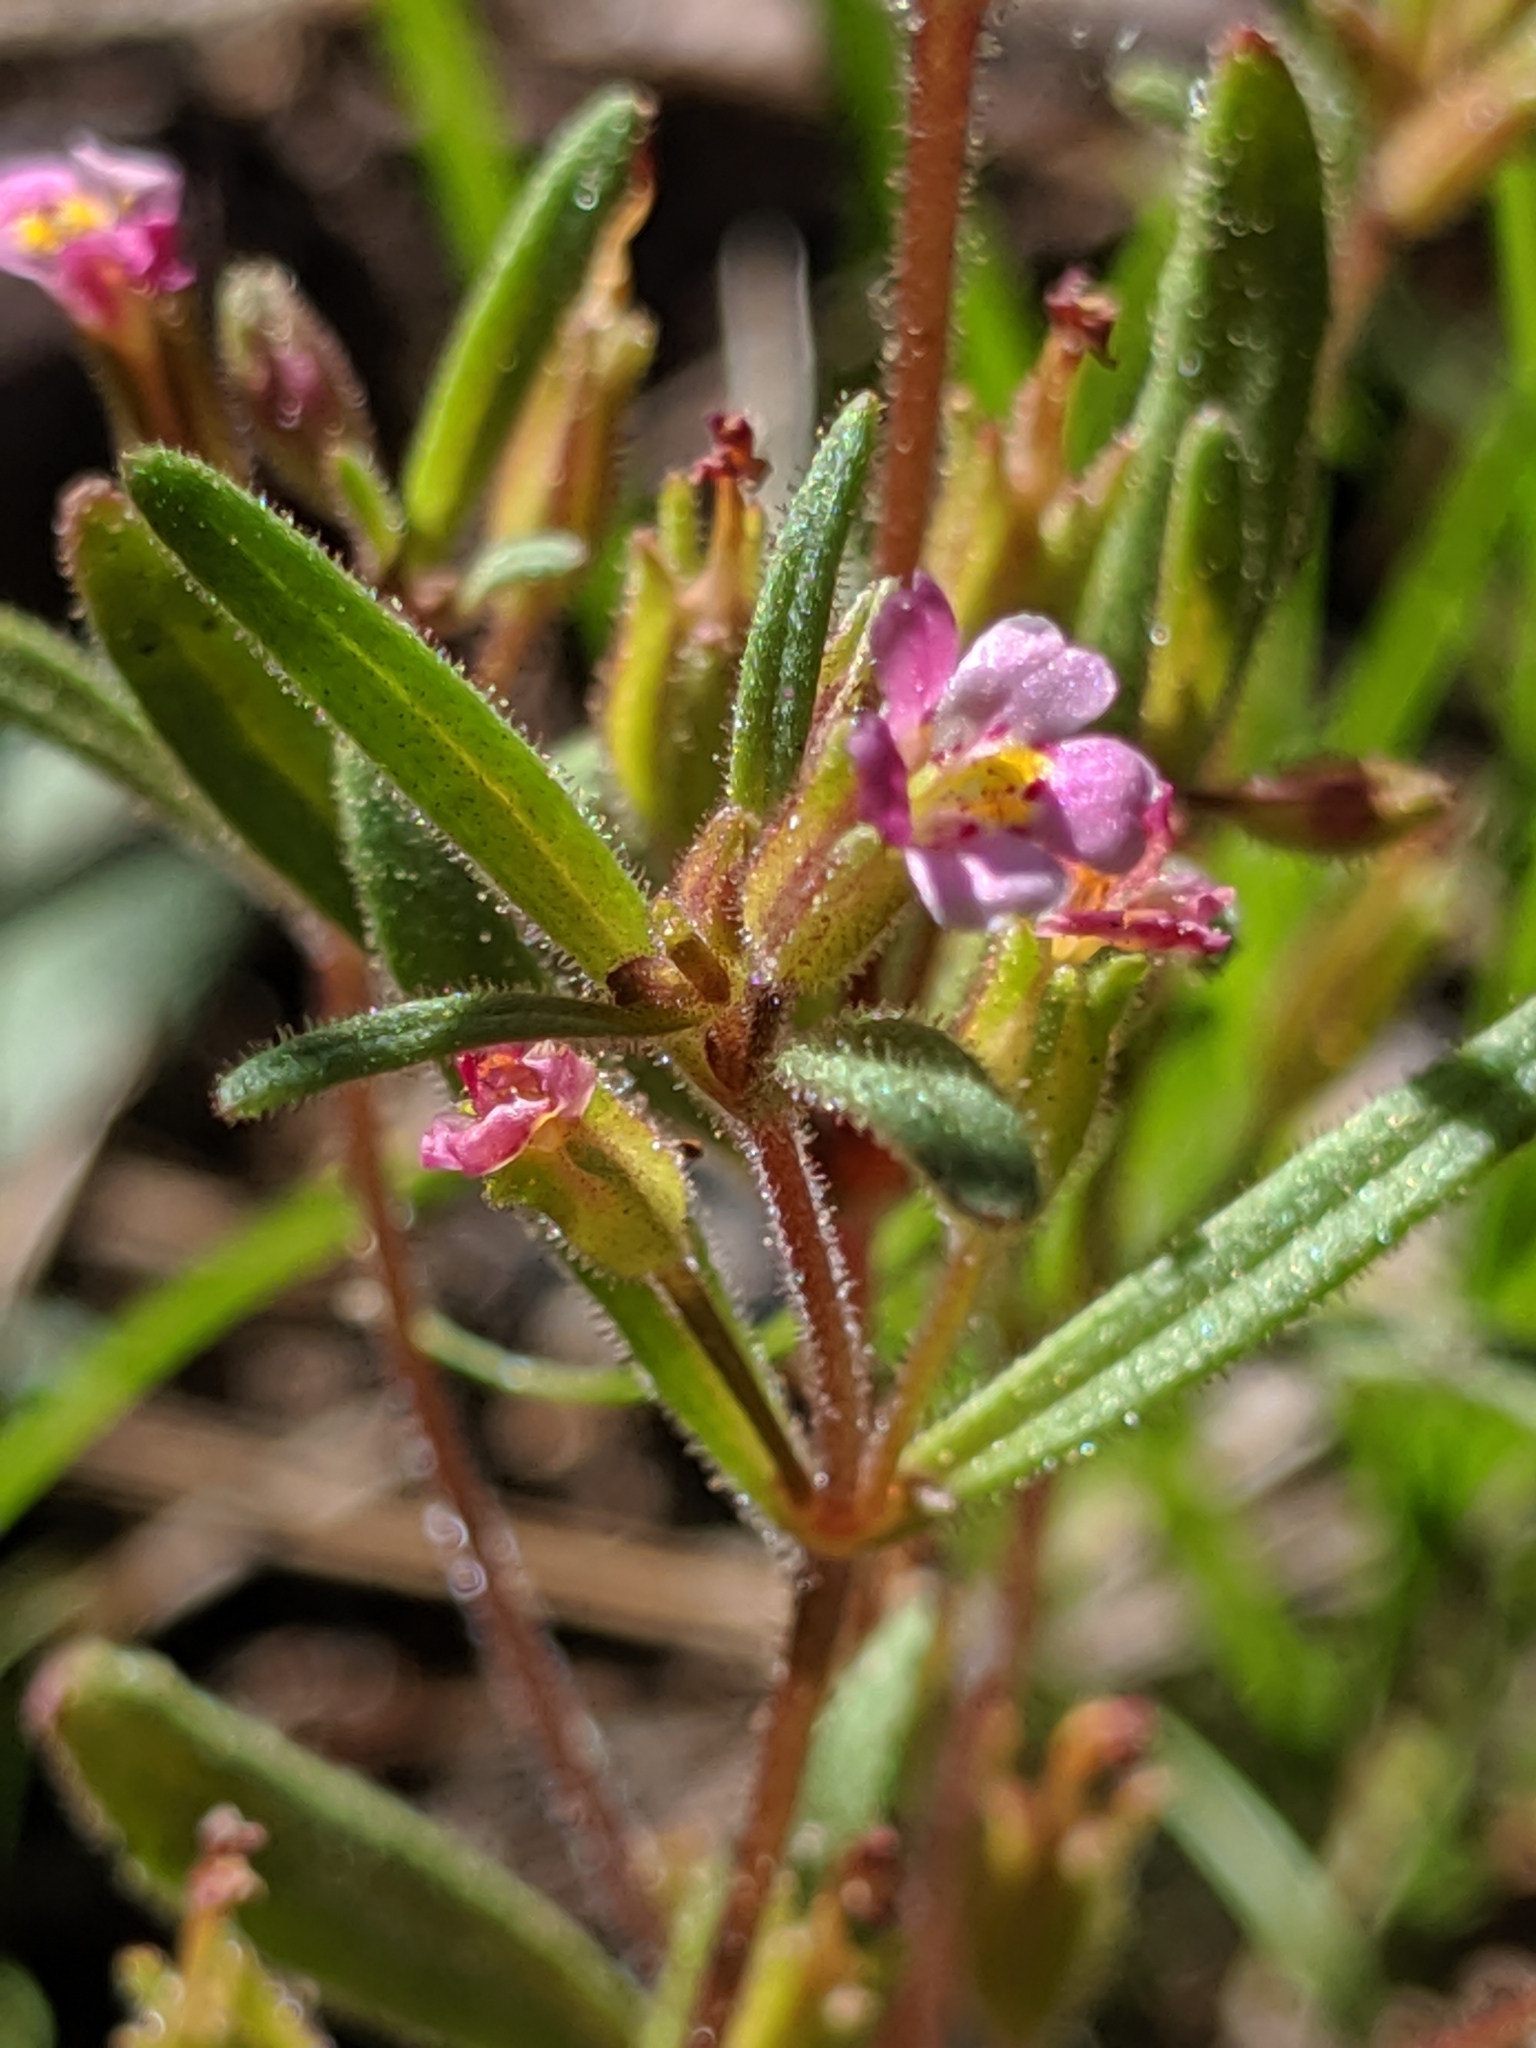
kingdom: Plantae
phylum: Tracheophyta
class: Magnoliopsida
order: Lamiales
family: Phrymaceae
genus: Erythranthe
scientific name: Erythranthe breweri
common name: Brewer's monkeyflower
